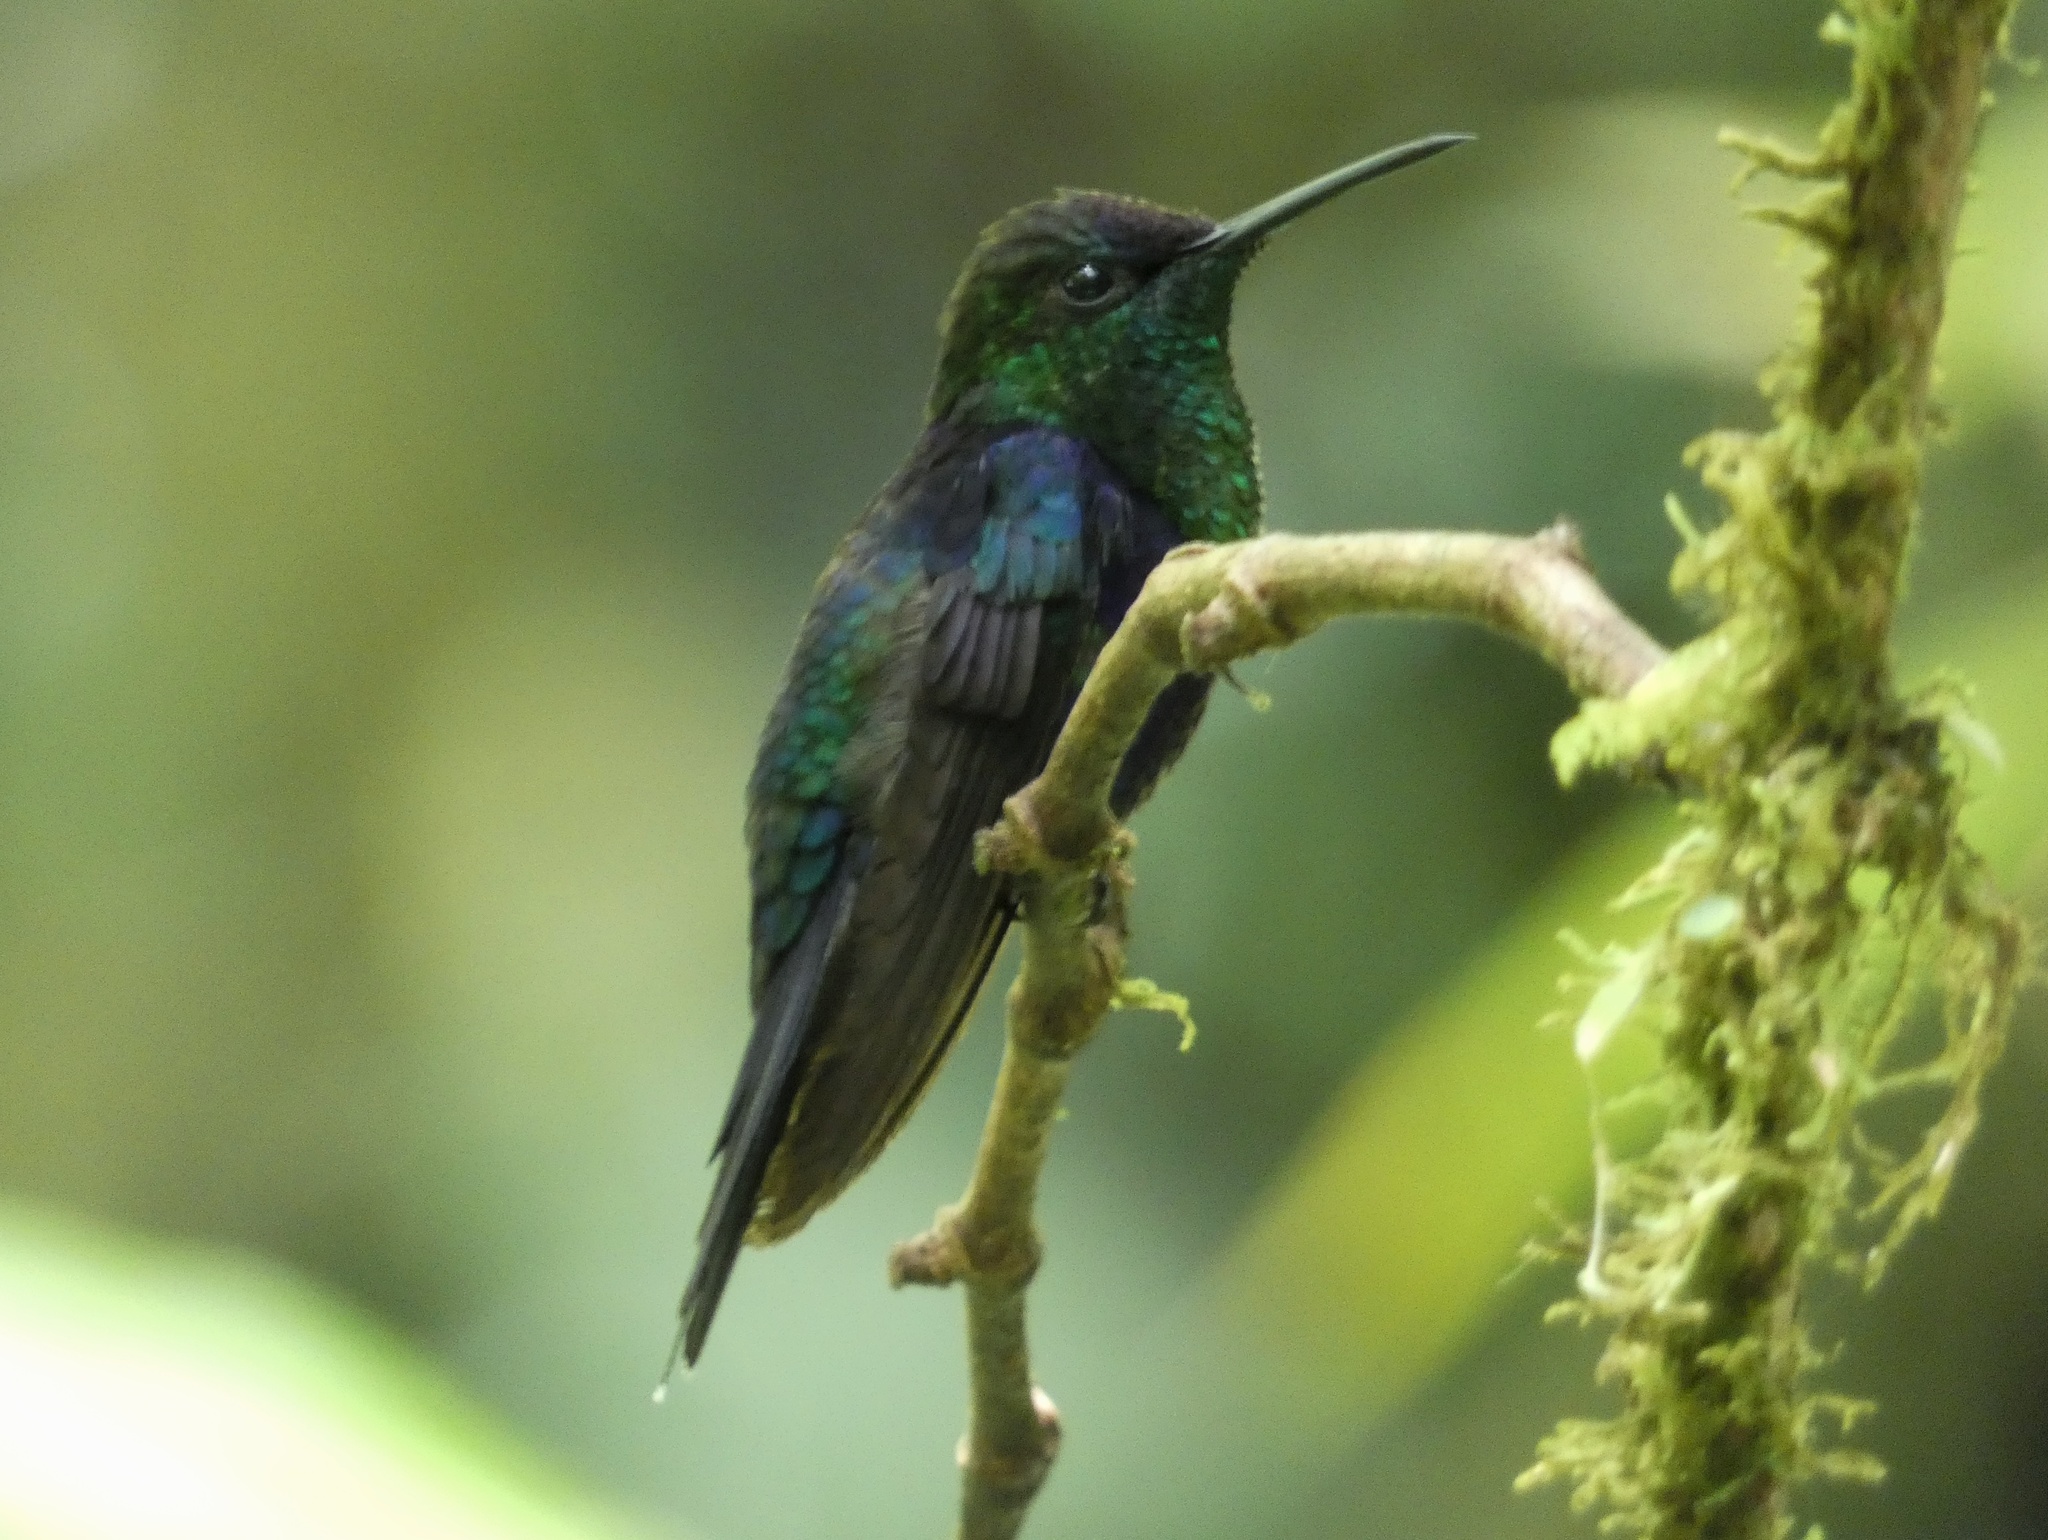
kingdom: Animalia
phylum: Chordata
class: Aves
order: Apodiformes
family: Trochilidae
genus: Thalurania
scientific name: Thalurania colombica
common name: Crowned woodnymph
